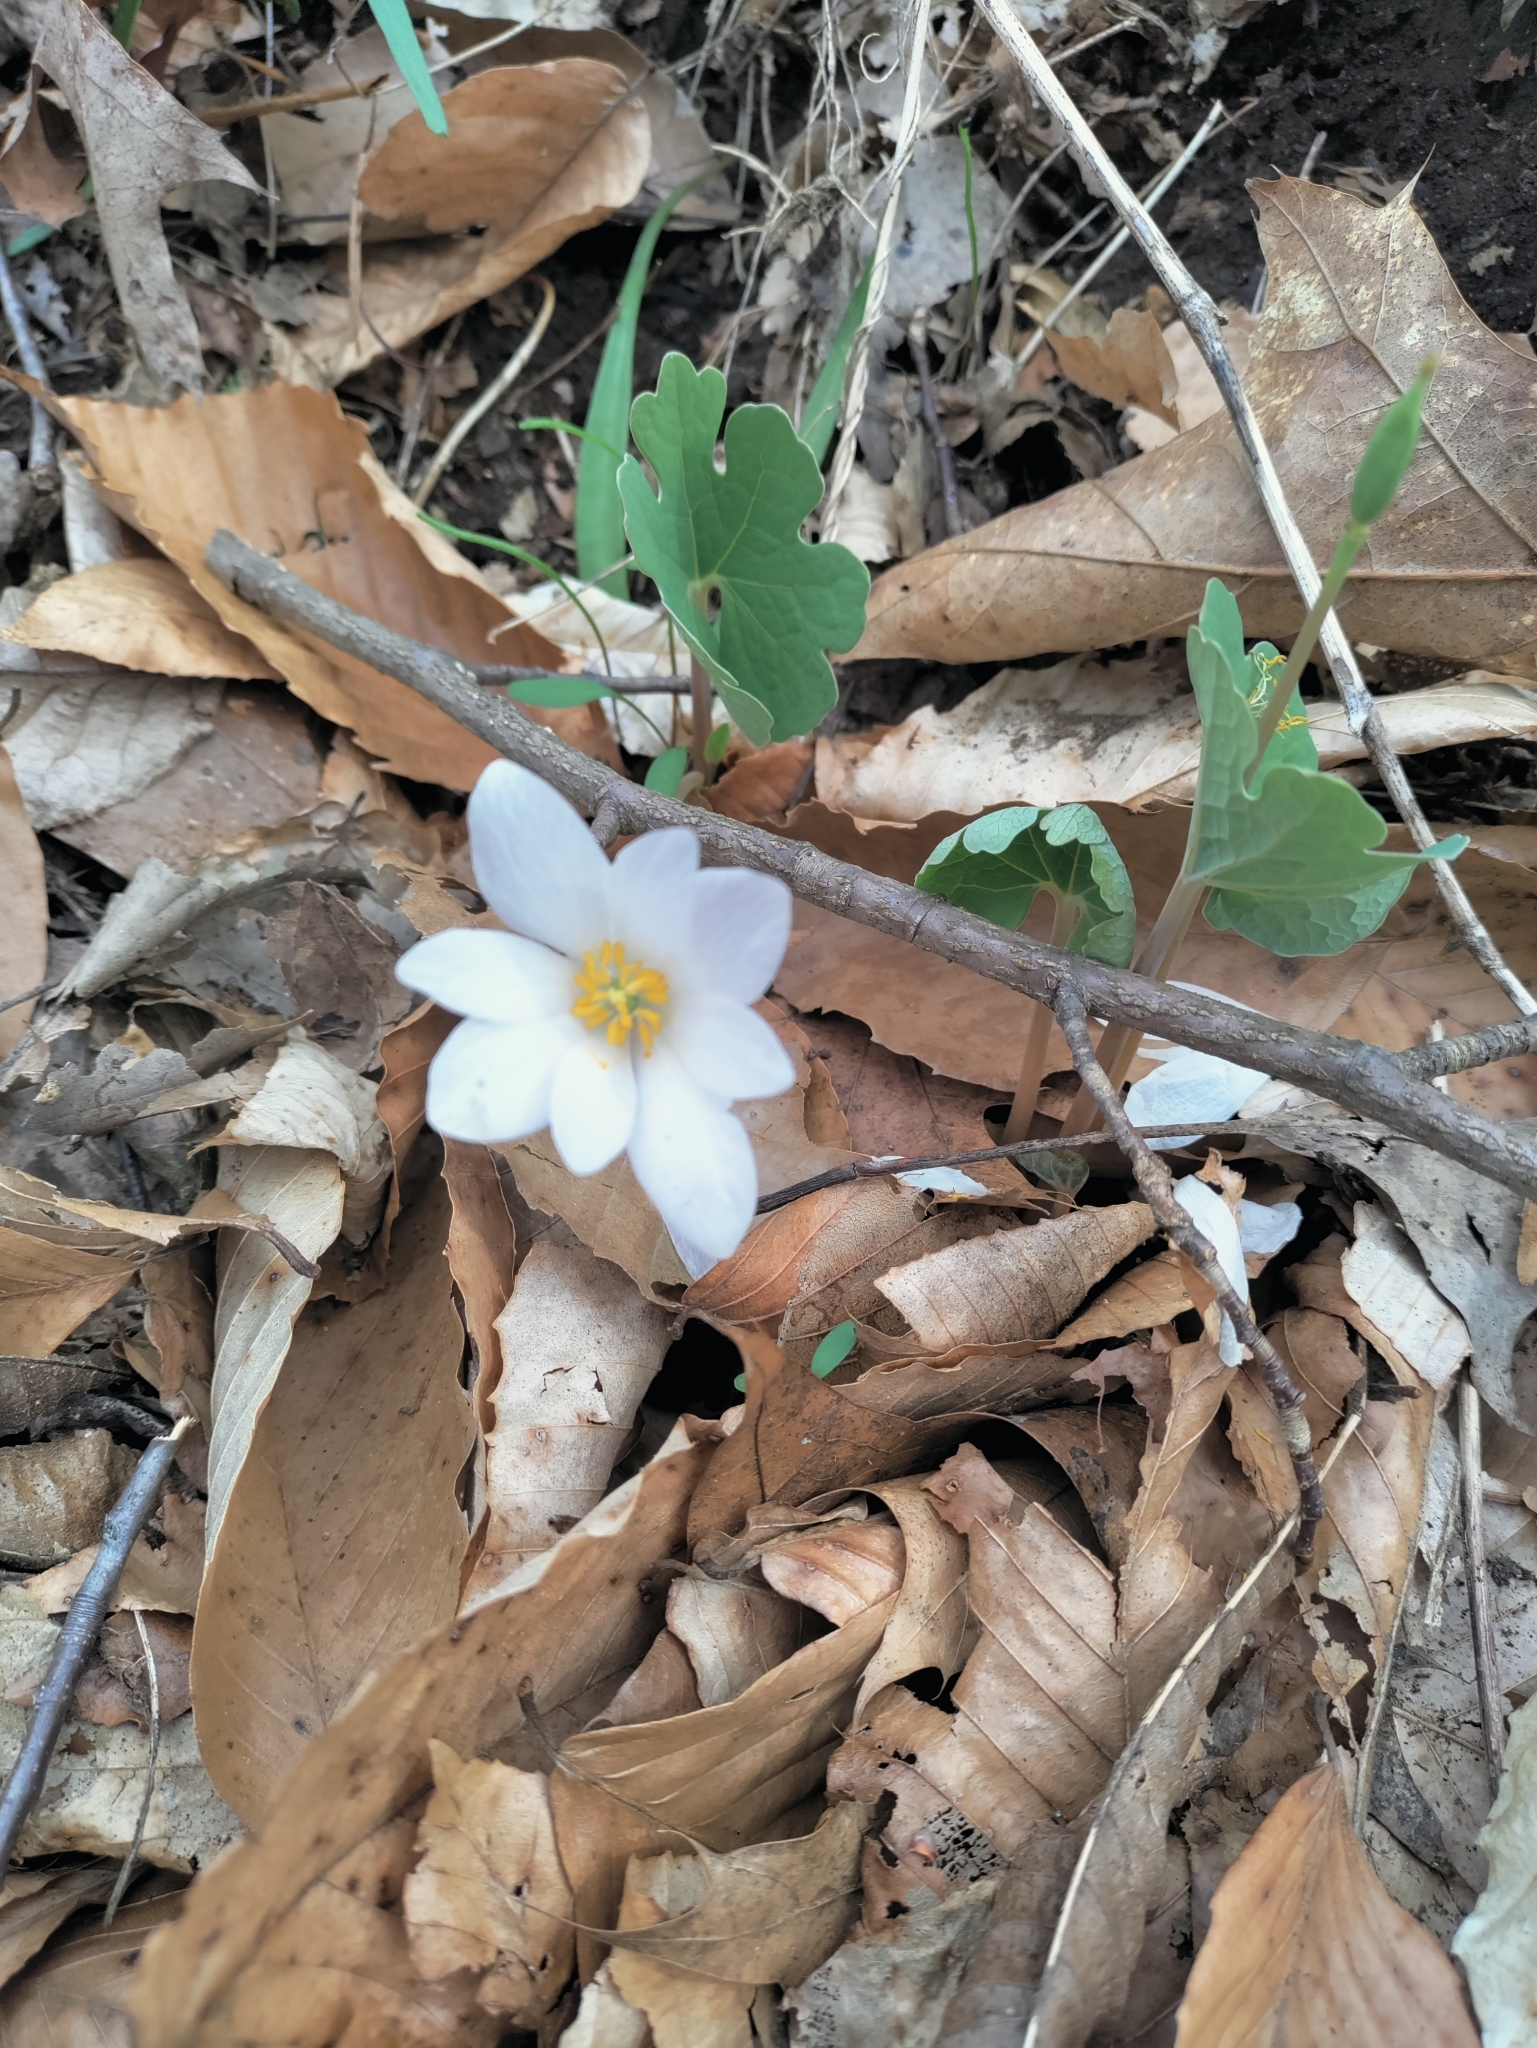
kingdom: Plantae
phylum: Tracheophyta
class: Magnoliopsida
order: Ranunculales
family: Papaveraceae
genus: Sanguinaria
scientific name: Sanguinaria canadensis
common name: Bloodroot
